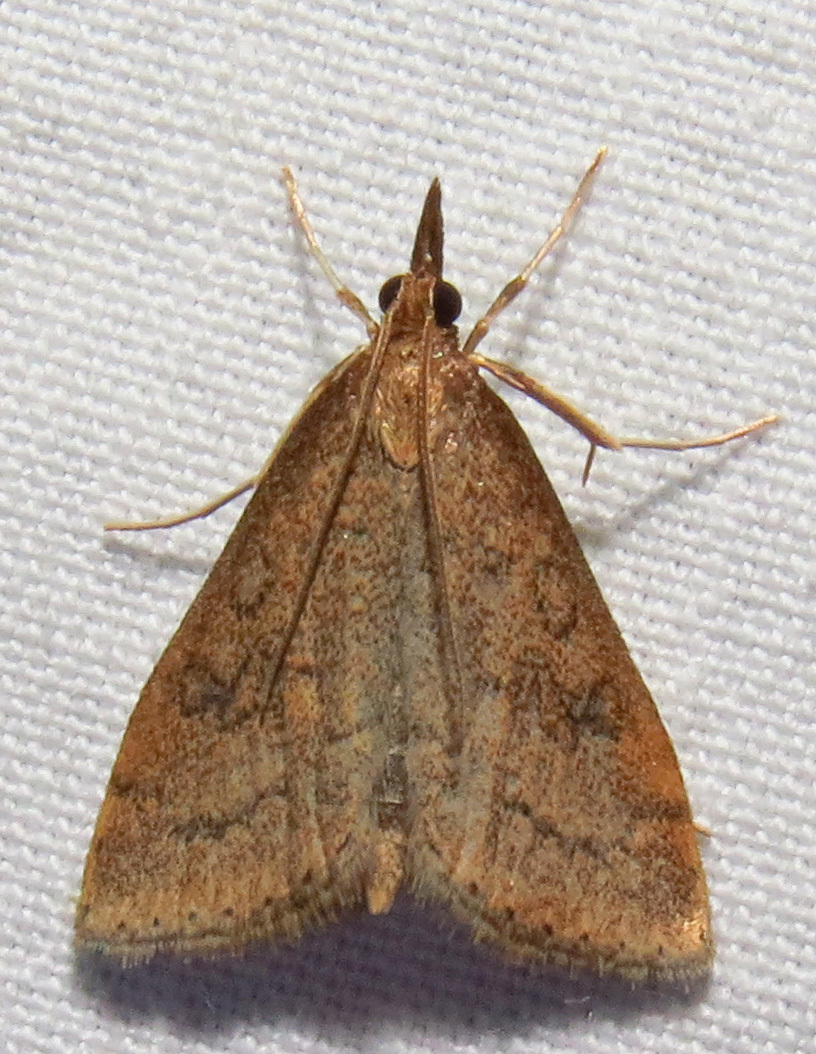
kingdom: Animalia
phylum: Arthropoda
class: Insecta
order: Lepidoptera
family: Crambidae
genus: Udea
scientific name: Udea rubigalis
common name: Celery leaftier moth
